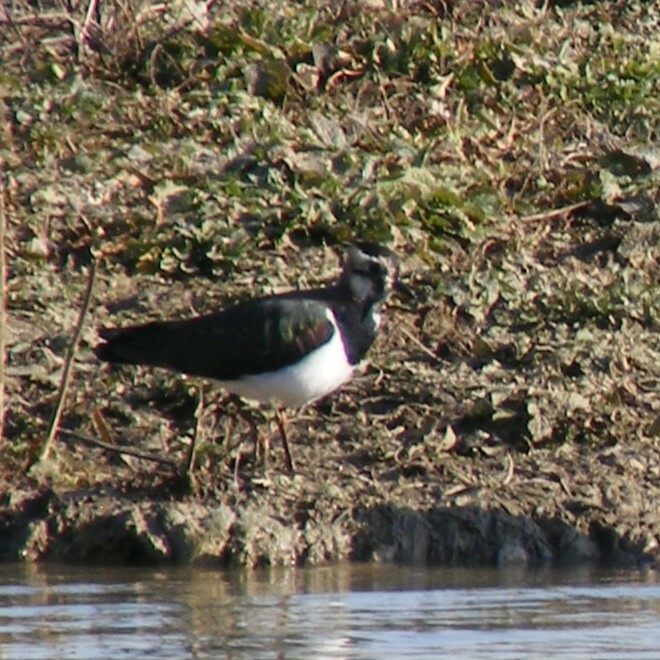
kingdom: Animalia
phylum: Chordata
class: Aves
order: Charadriiformes
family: Charadriidae
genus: Vanellus
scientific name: Vanellus vanellus
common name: Northern lapwing
